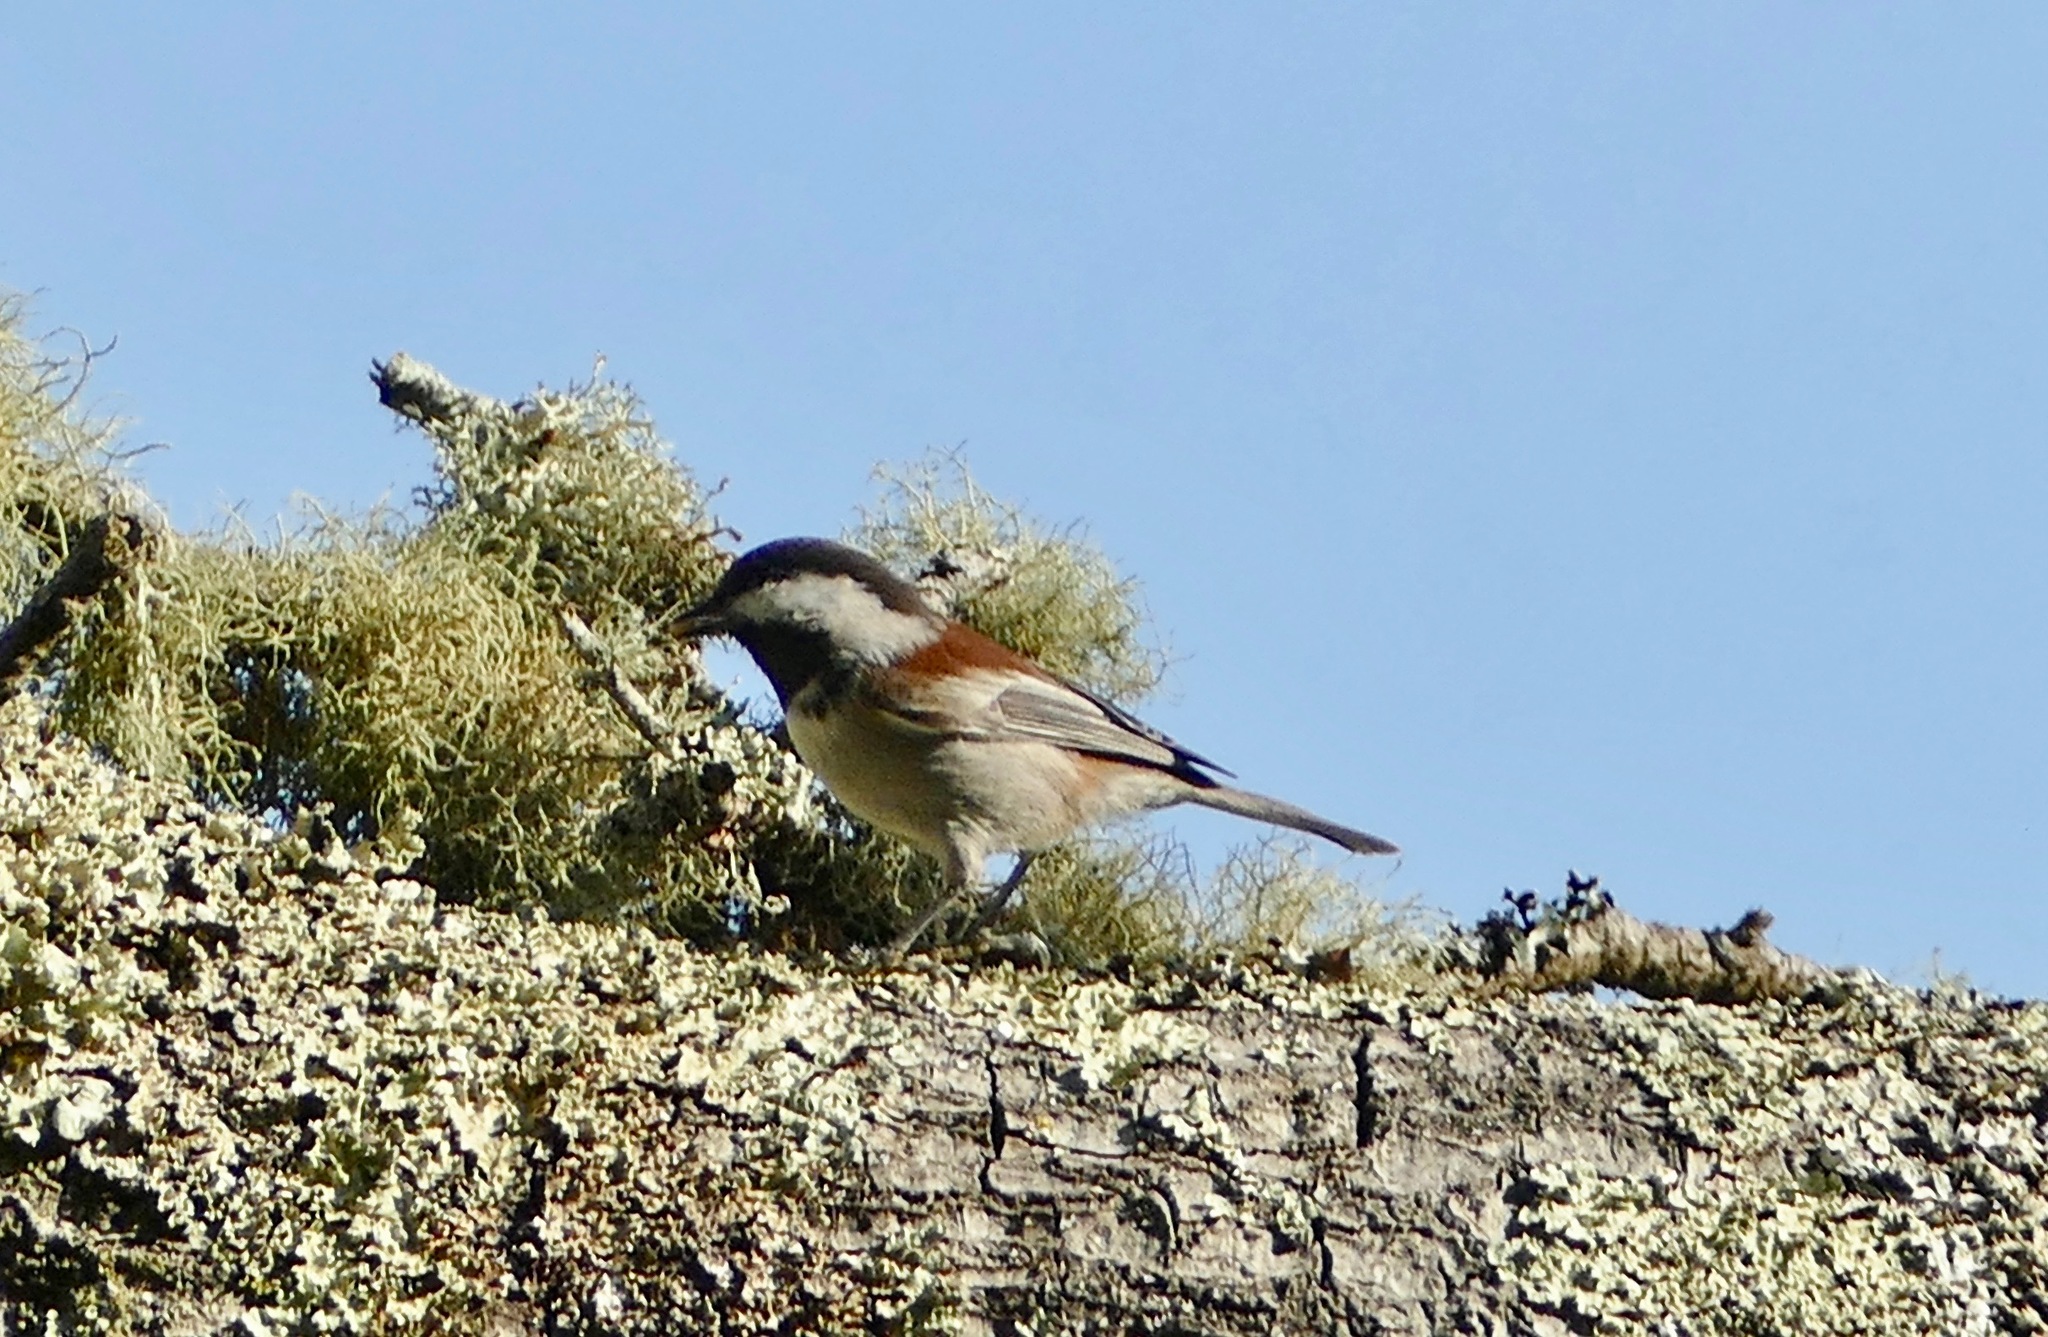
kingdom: Animalia
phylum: Chordata
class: Aves
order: Passeriformes
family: Paridae
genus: Poecile
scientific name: Poecile rufescens
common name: Chestnut-backed chickadee
